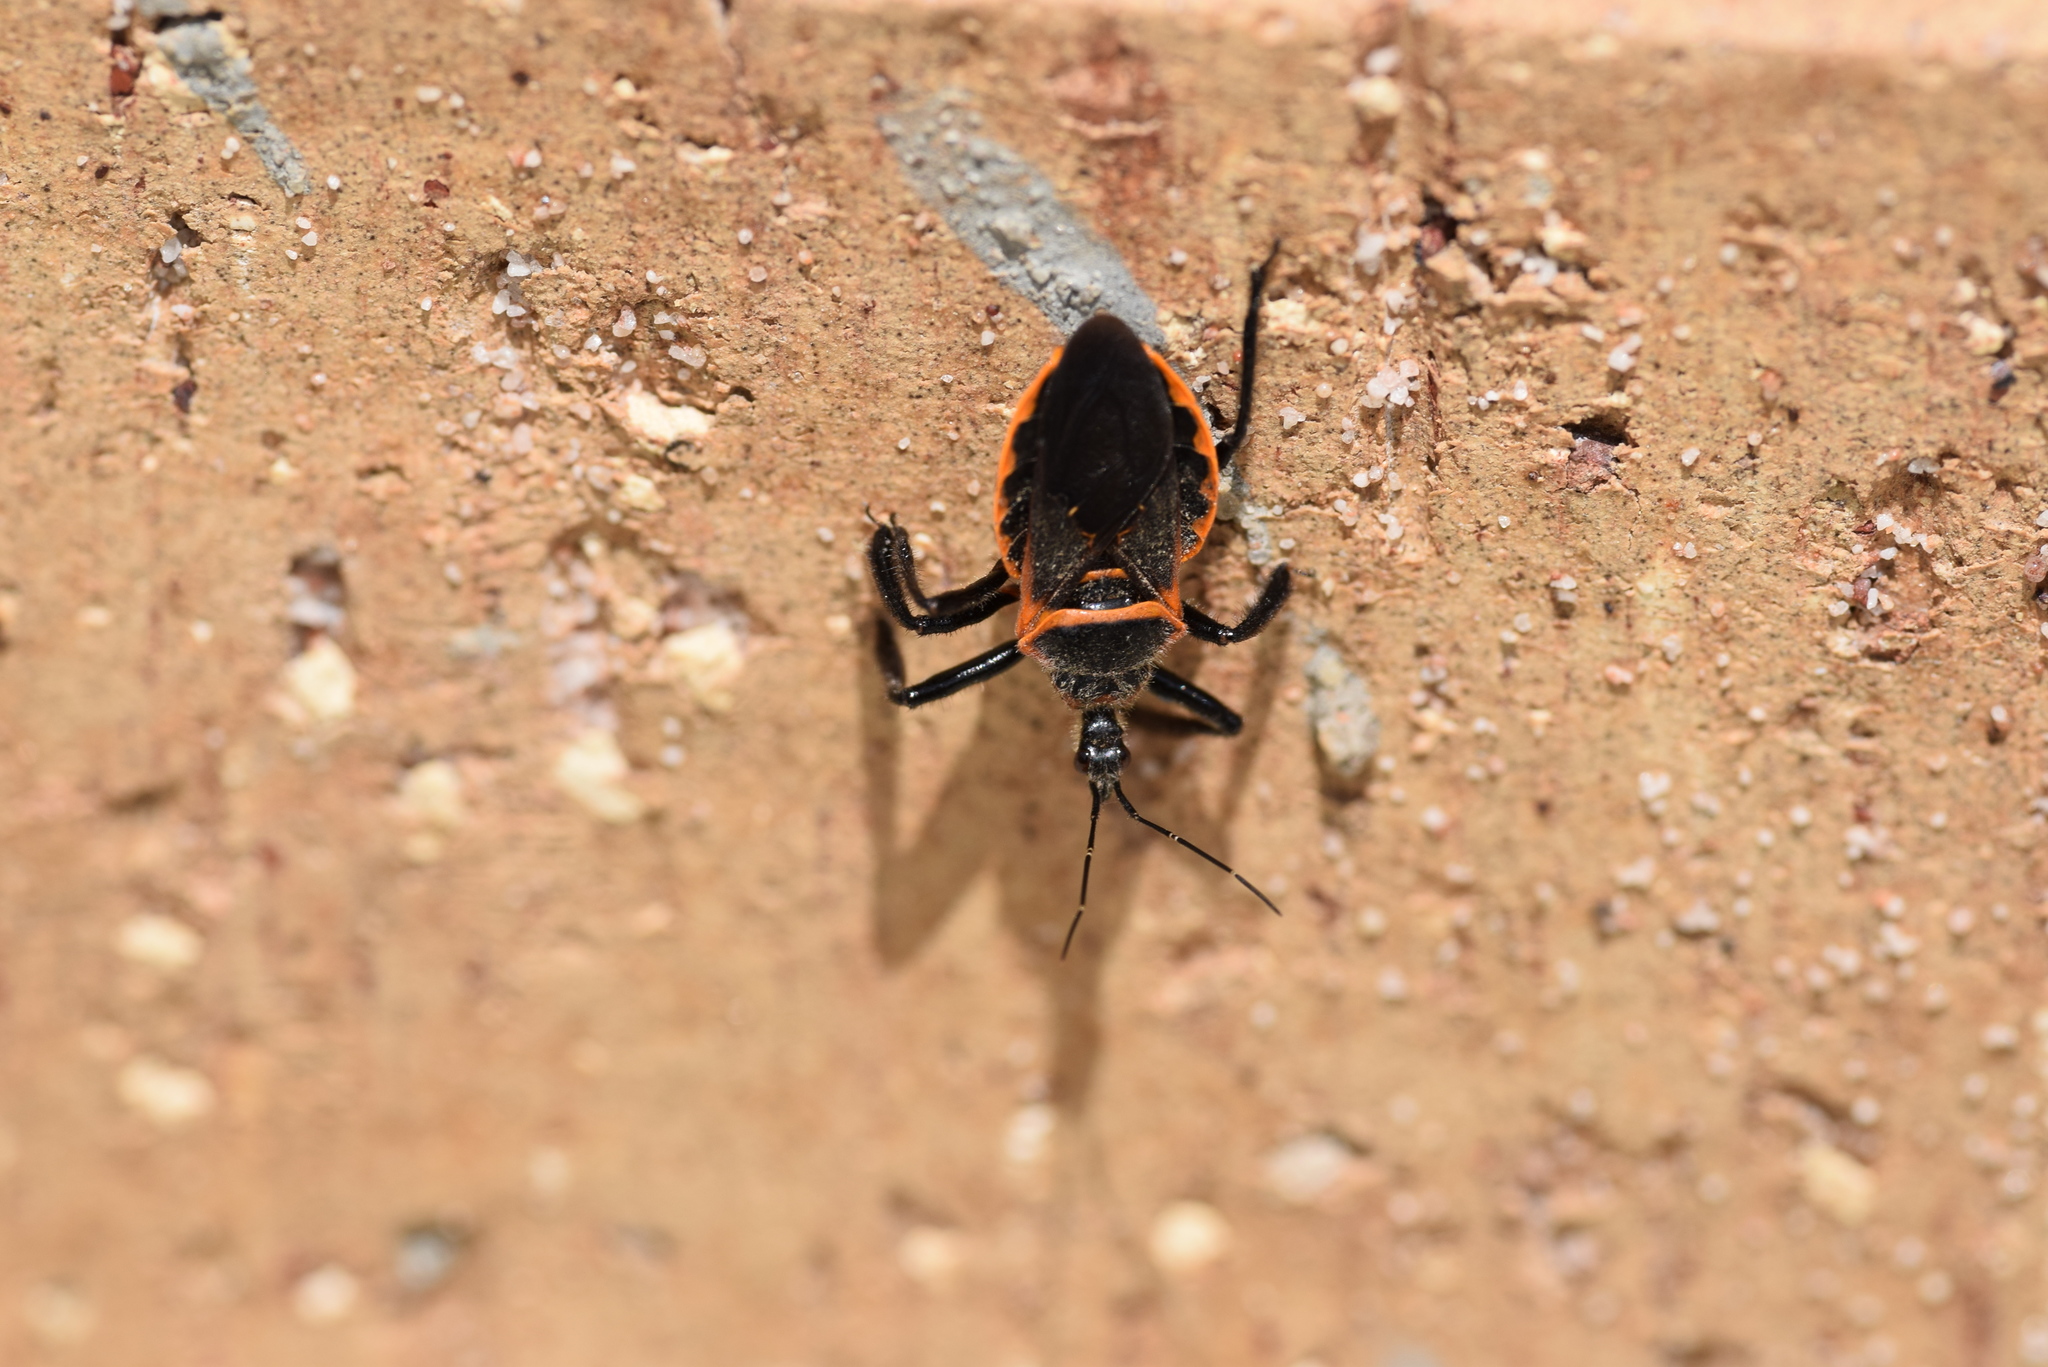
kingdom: Animalia
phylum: Arthropoda
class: Insecta
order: Hemiptera
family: Reduviidae
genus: Apiomerus
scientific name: Apiomerus crassipes
